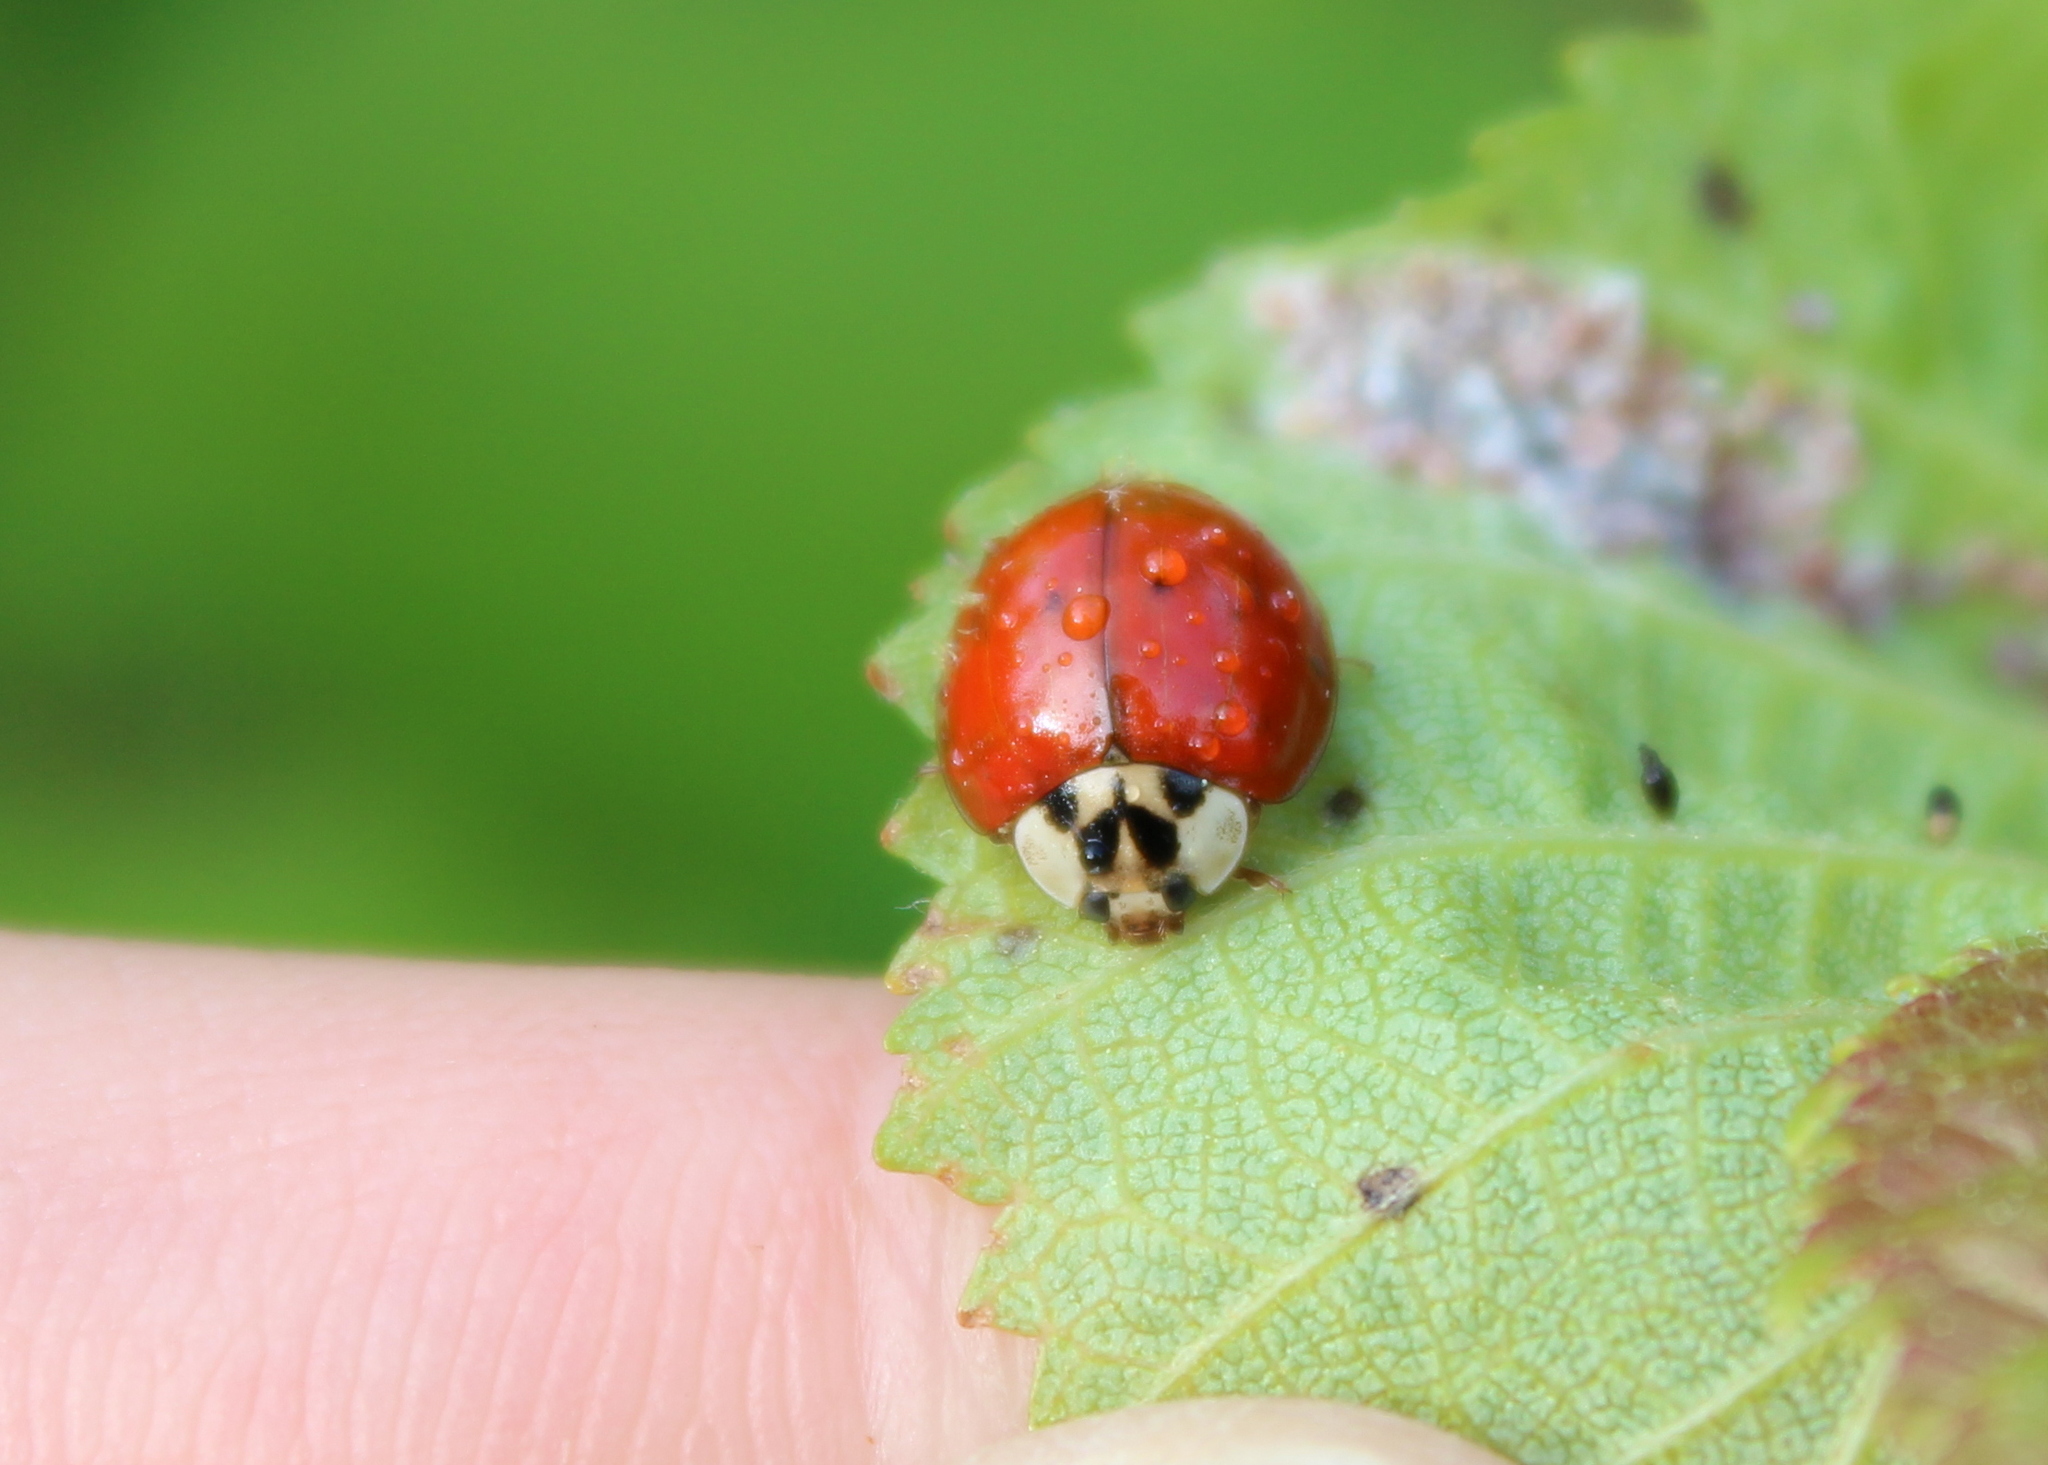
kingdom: Animalia
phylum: Arthropoda
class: Insecta
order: Coleoptera
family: Coccinellidae
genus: Harmonia
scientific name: Harmonia axyridis
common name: Harlequin ladybird
